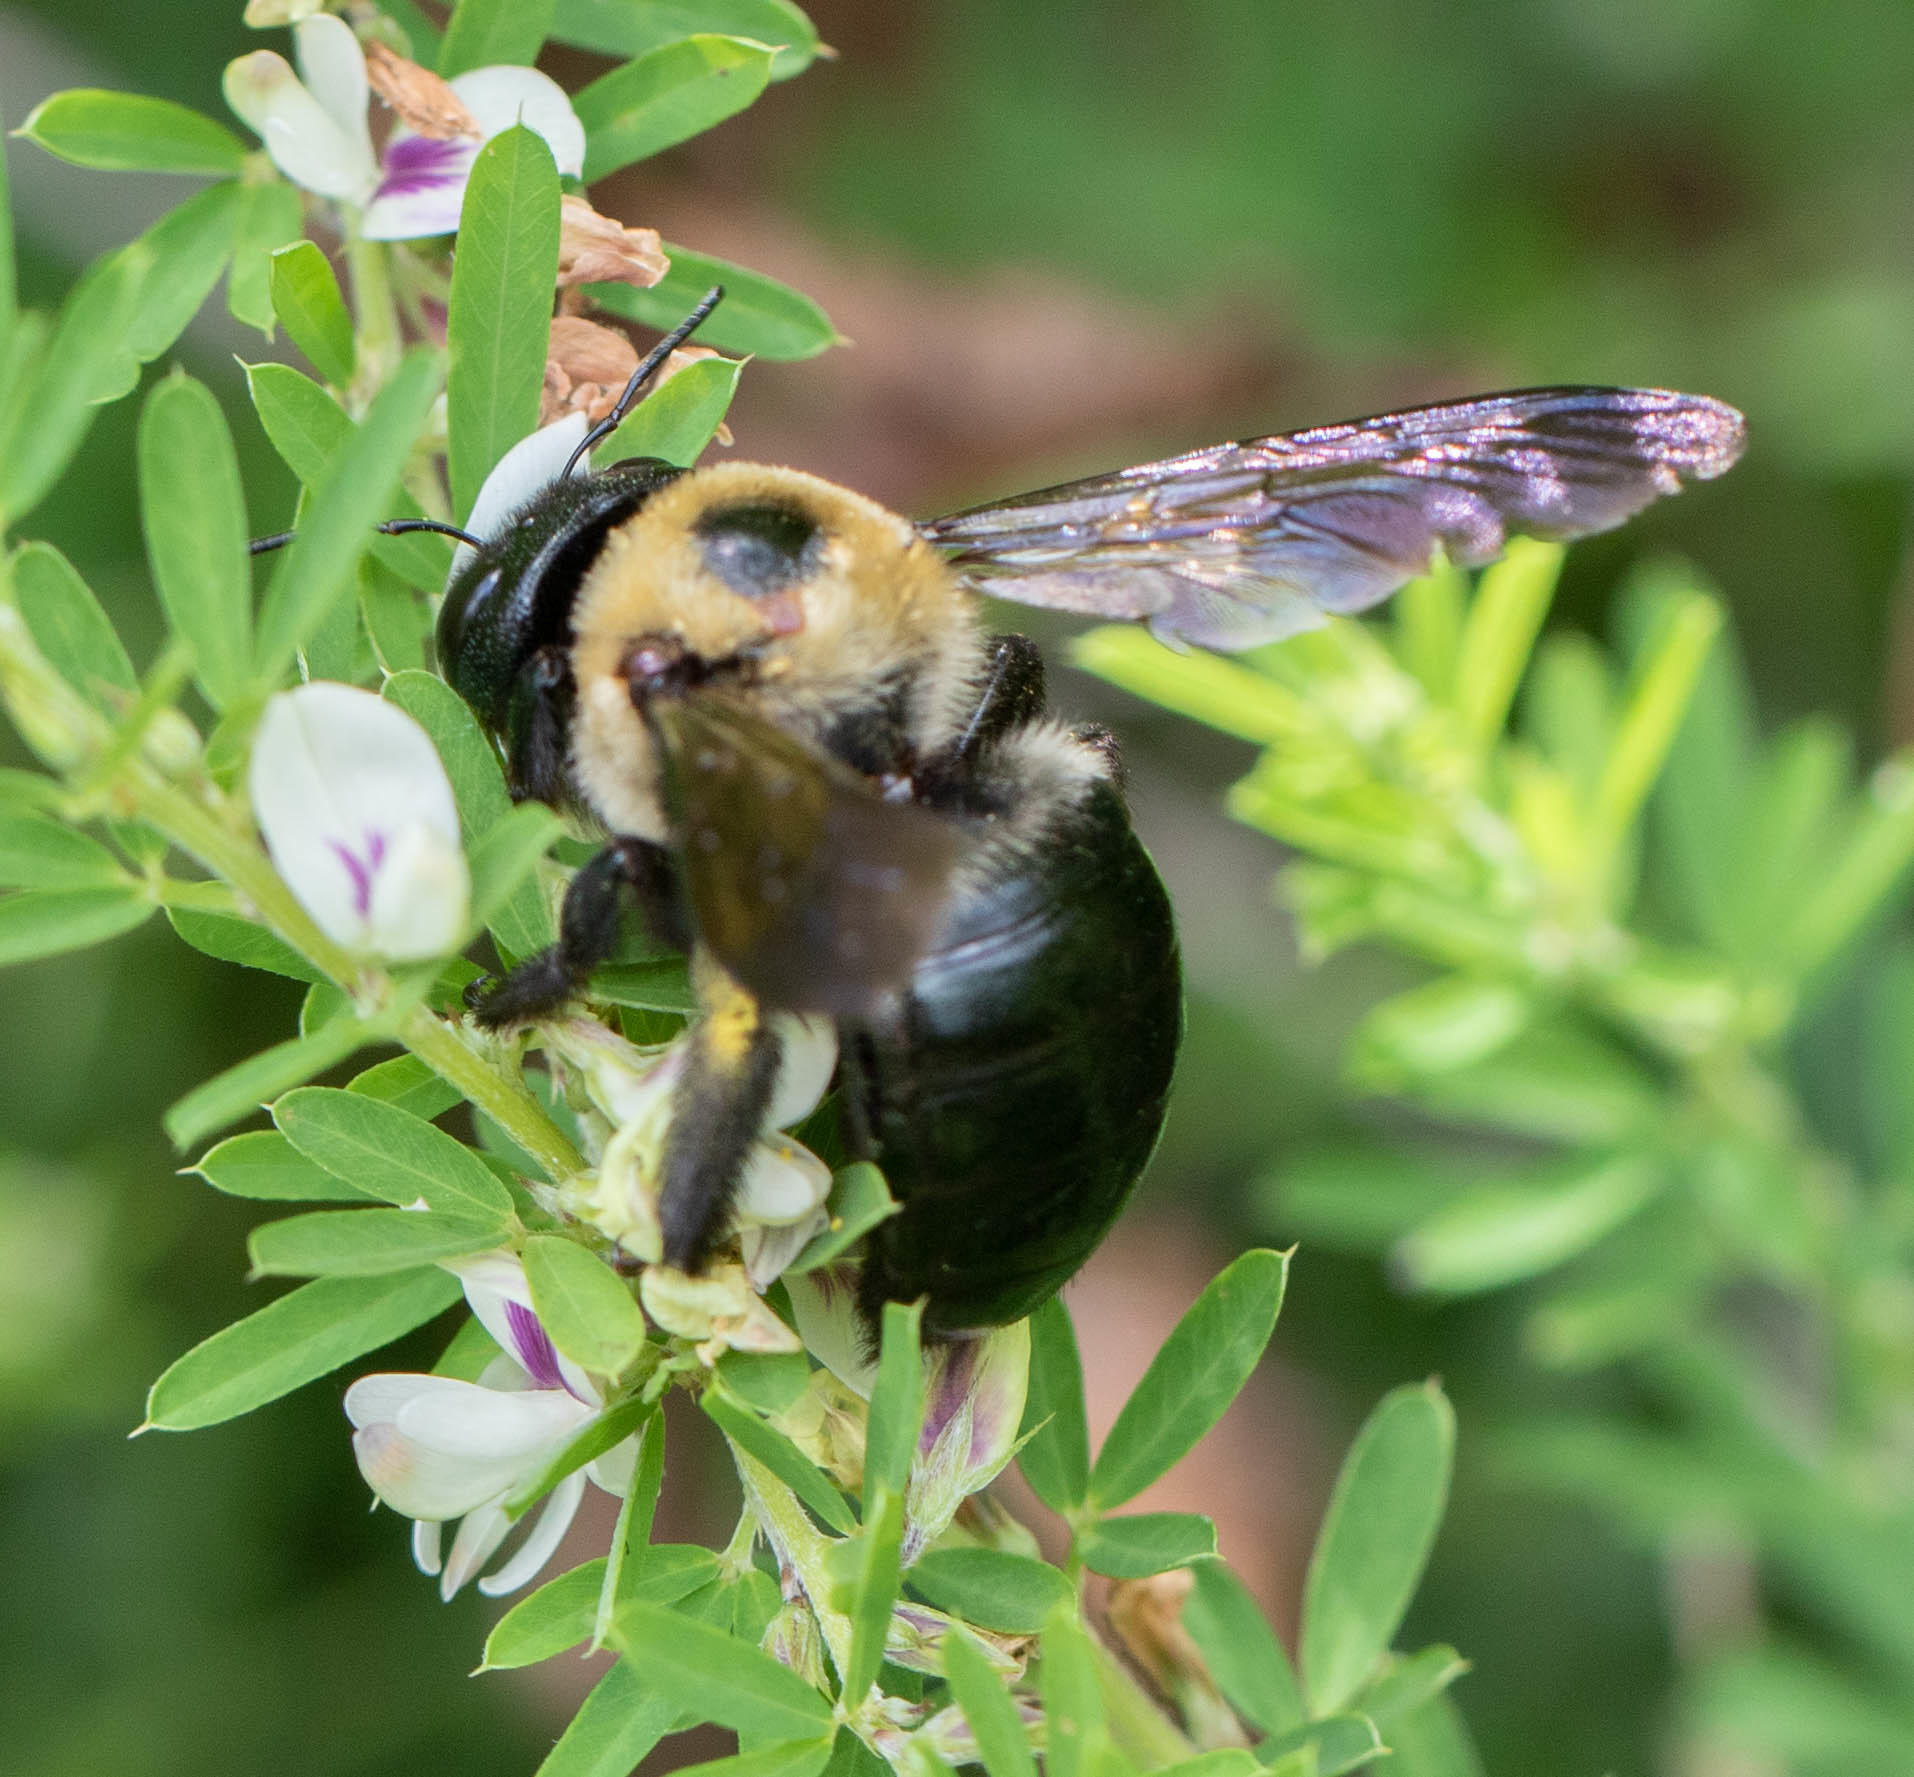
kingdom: Animalia
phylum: Arthropoda
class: Insecta
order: Hymenoptera
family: Apidae
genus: Xylocopa
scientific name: Xylocopa virginica
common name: Carpenter bee
